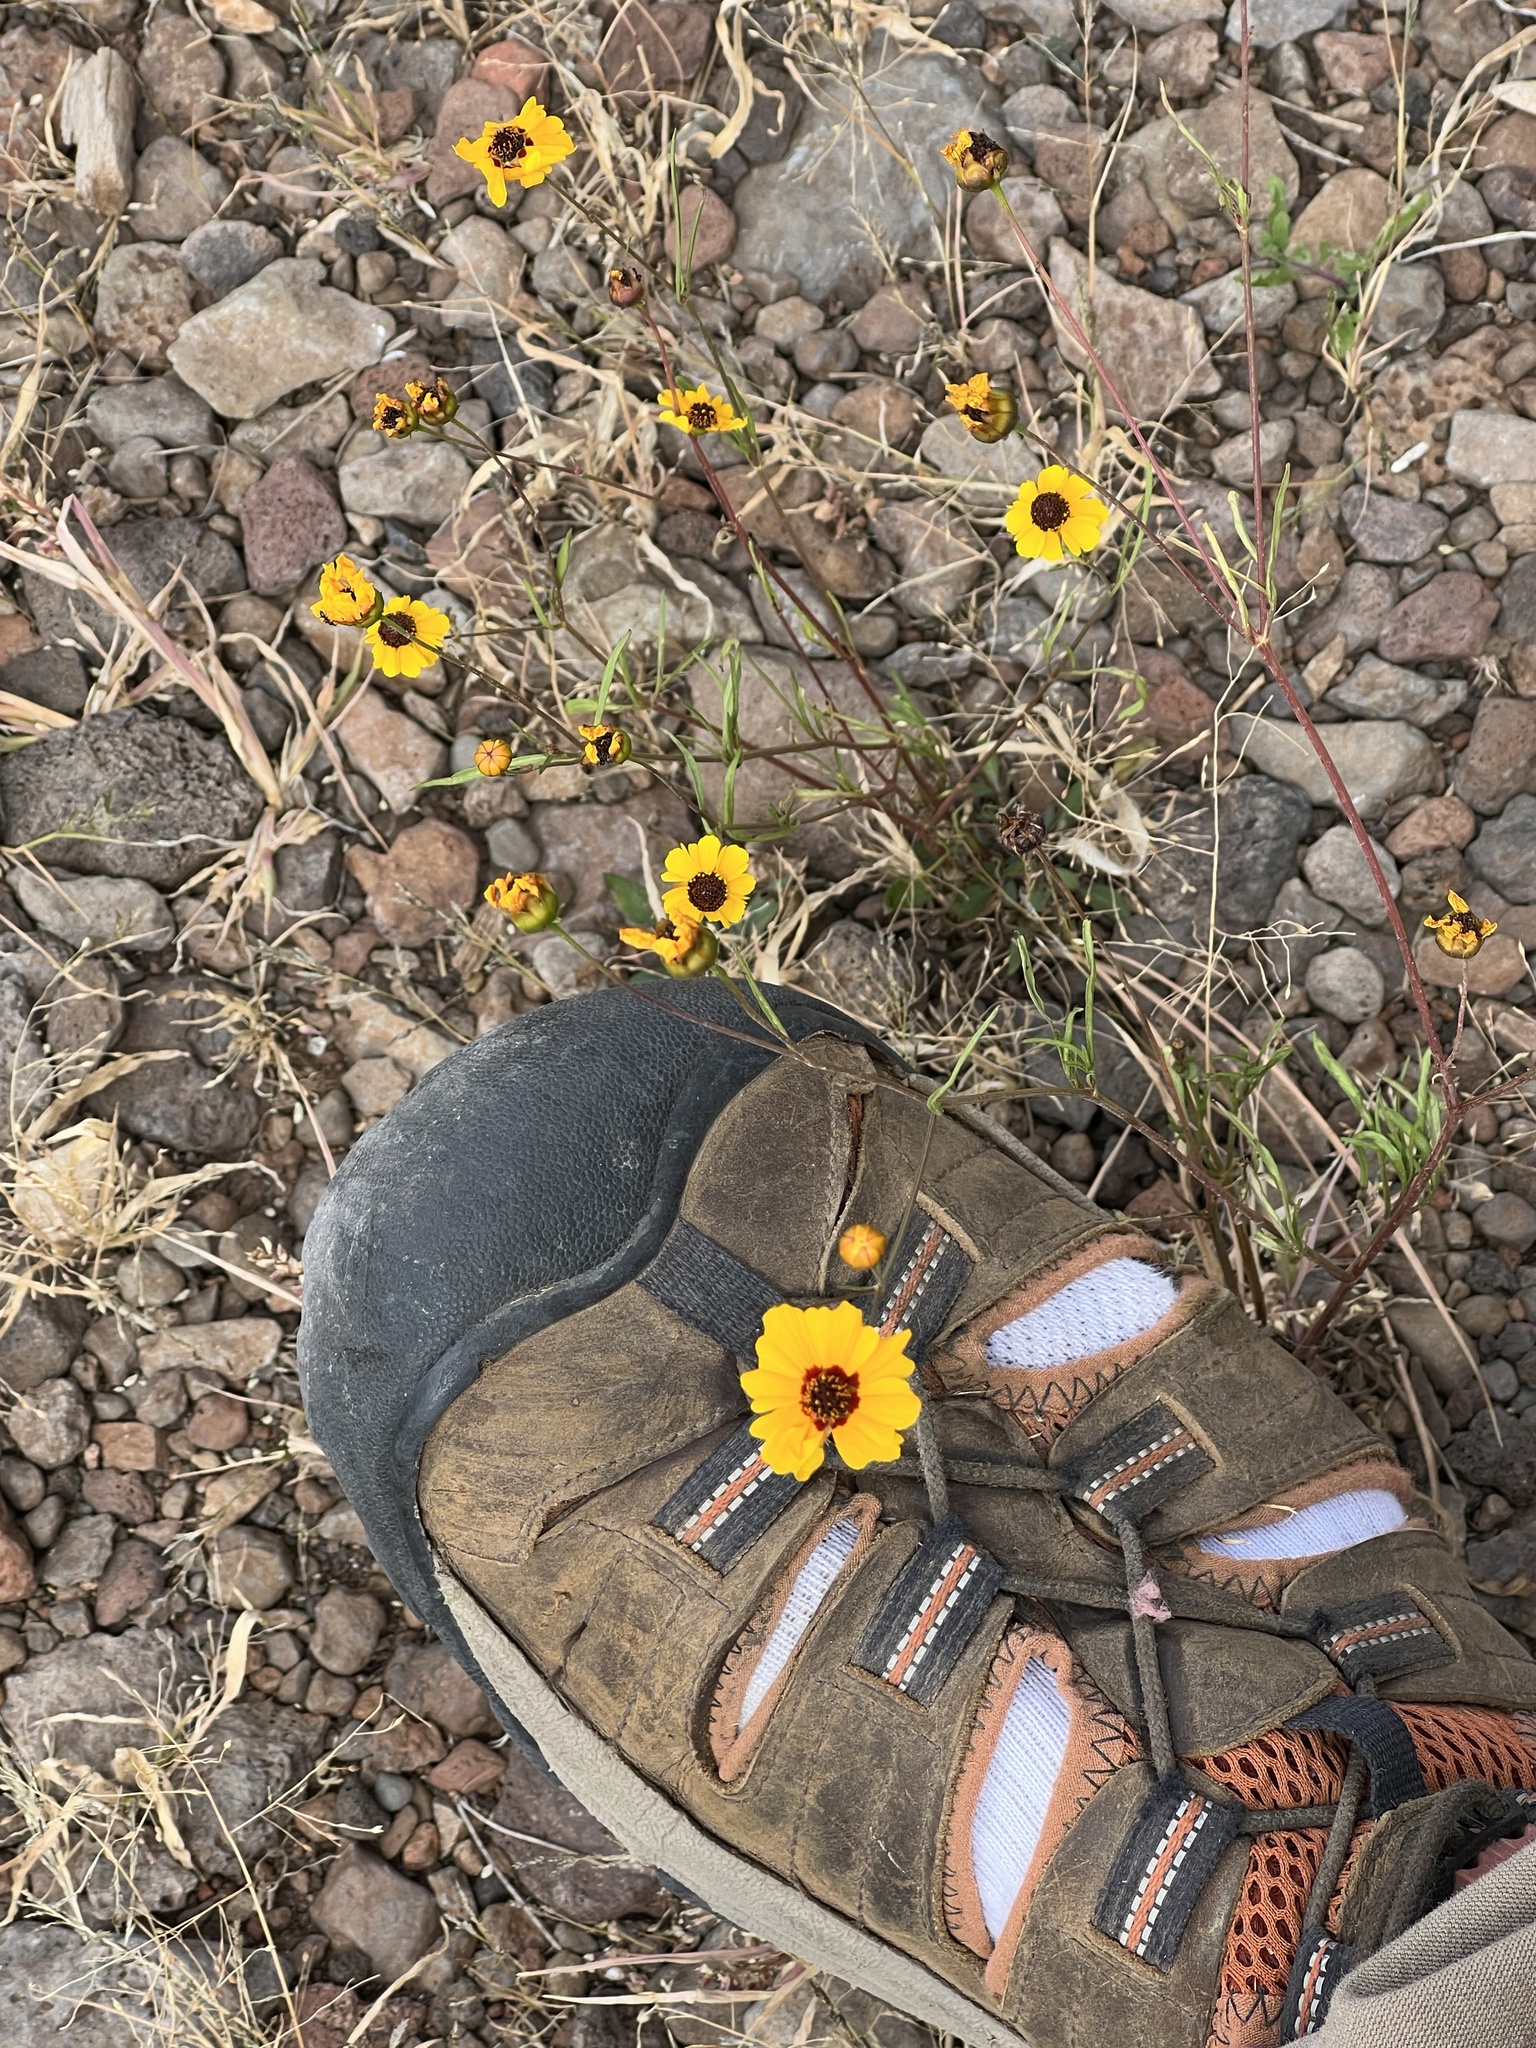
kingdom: Plantae
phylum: Tracheophyta
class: Magnoliopsida
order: Asterales
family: Asteraceae
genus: Coreopsis
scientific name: Coreopsis tinctoria
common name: Garden tickseed
